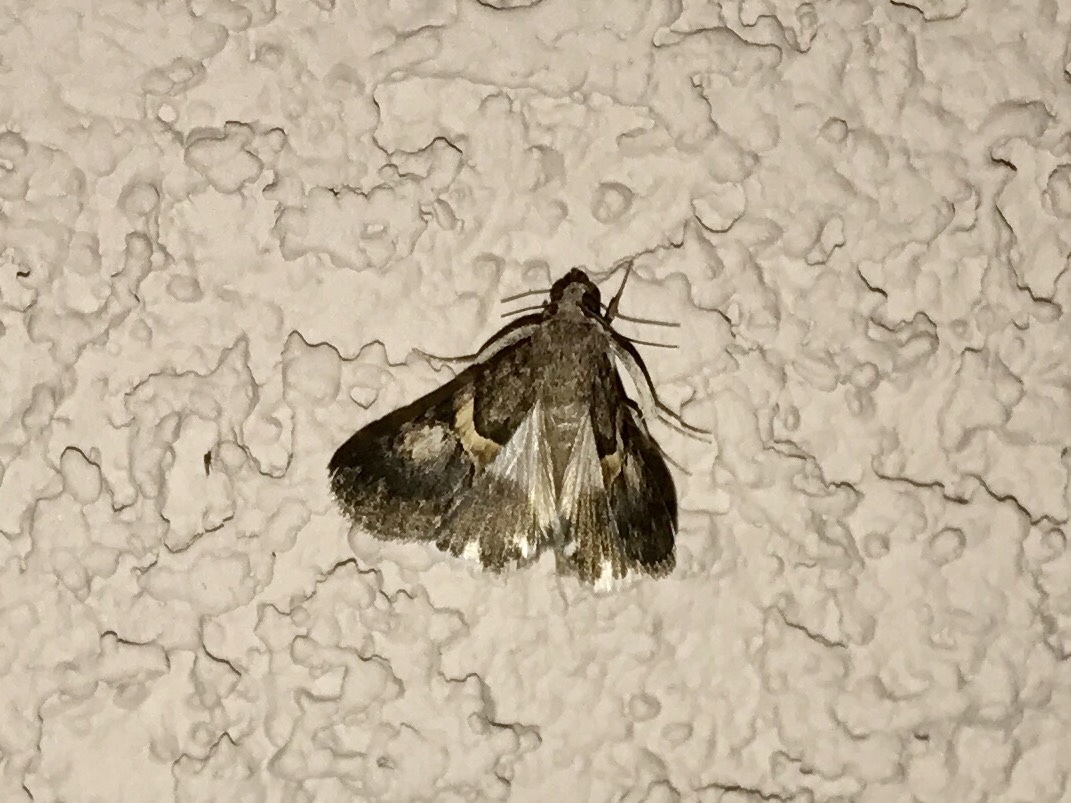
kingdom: Animalia
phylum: Arthropoda
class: Insecta
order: Lepidoptera
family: Erebidae
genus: Melipotis
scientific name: Melipotis jucunda
